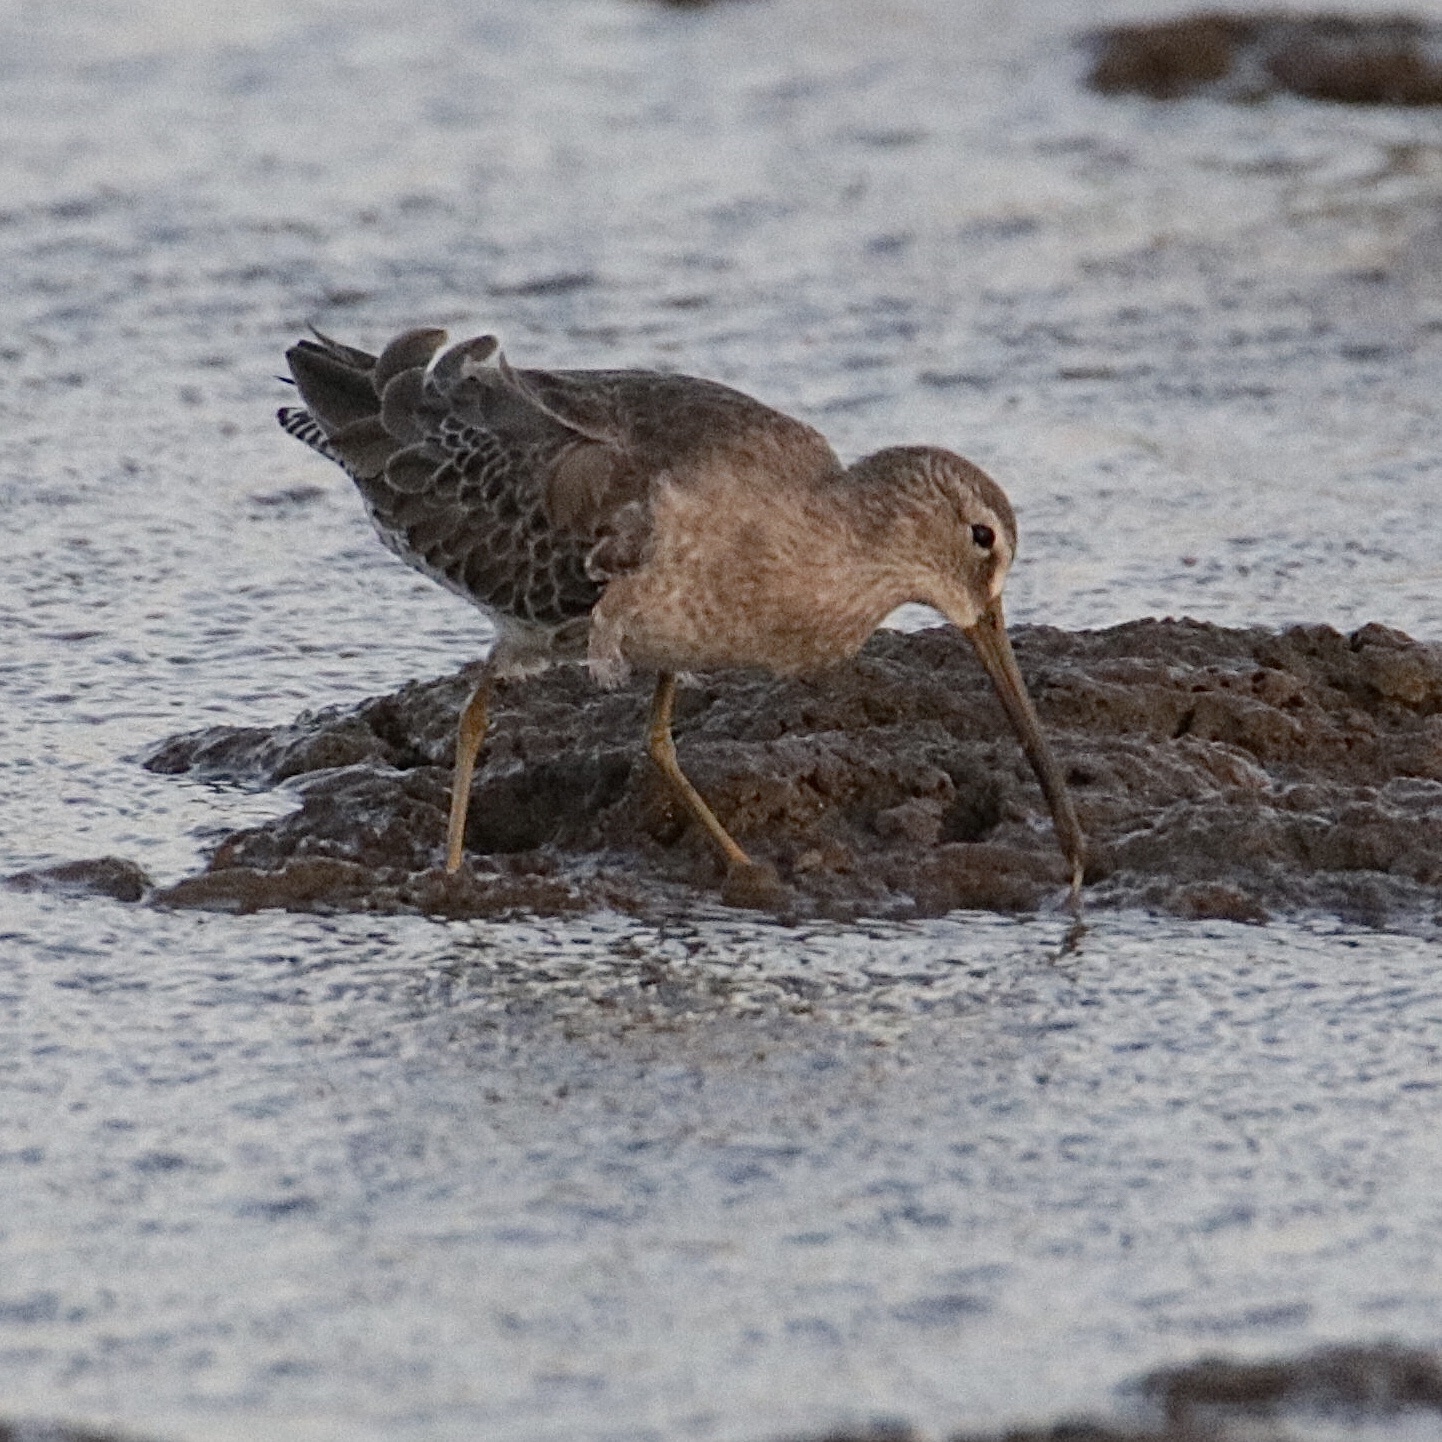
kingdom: Animalia
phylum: Chordata
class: Aves
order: Charadriiformes
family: Scolopacidae
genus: Limnodromus
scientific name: Limnodromus griseus
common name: Short-billed dowitcher
